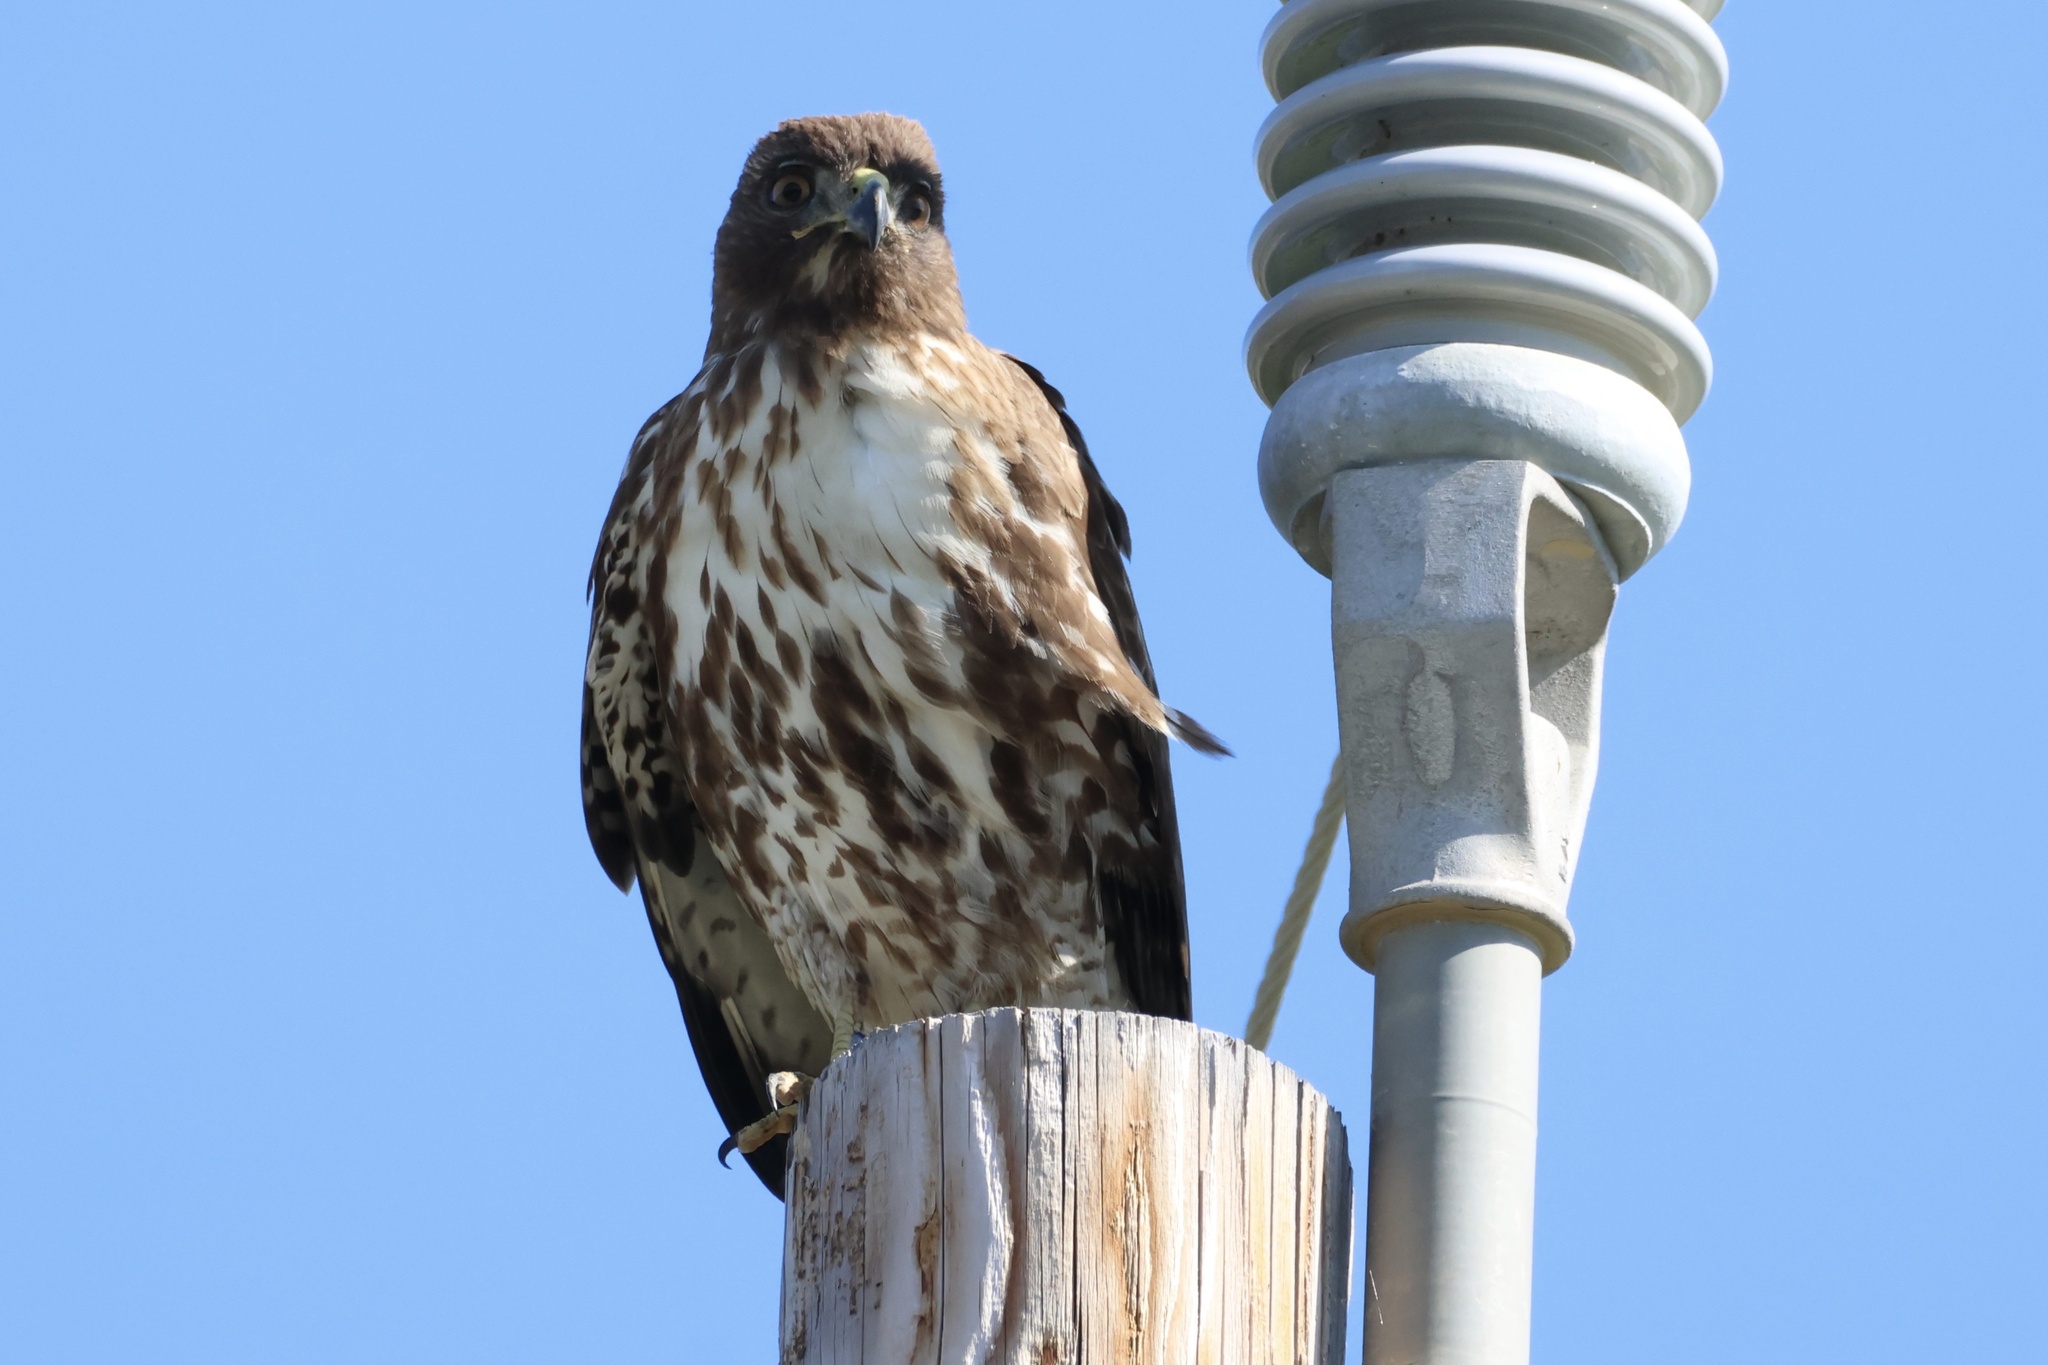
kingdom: Animalia
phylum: Chordata
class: Aves
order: Accipitriformes
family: Accipitridae
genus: Buteo
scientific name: Buteo jamaicensis
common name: Red-tailed hawk
